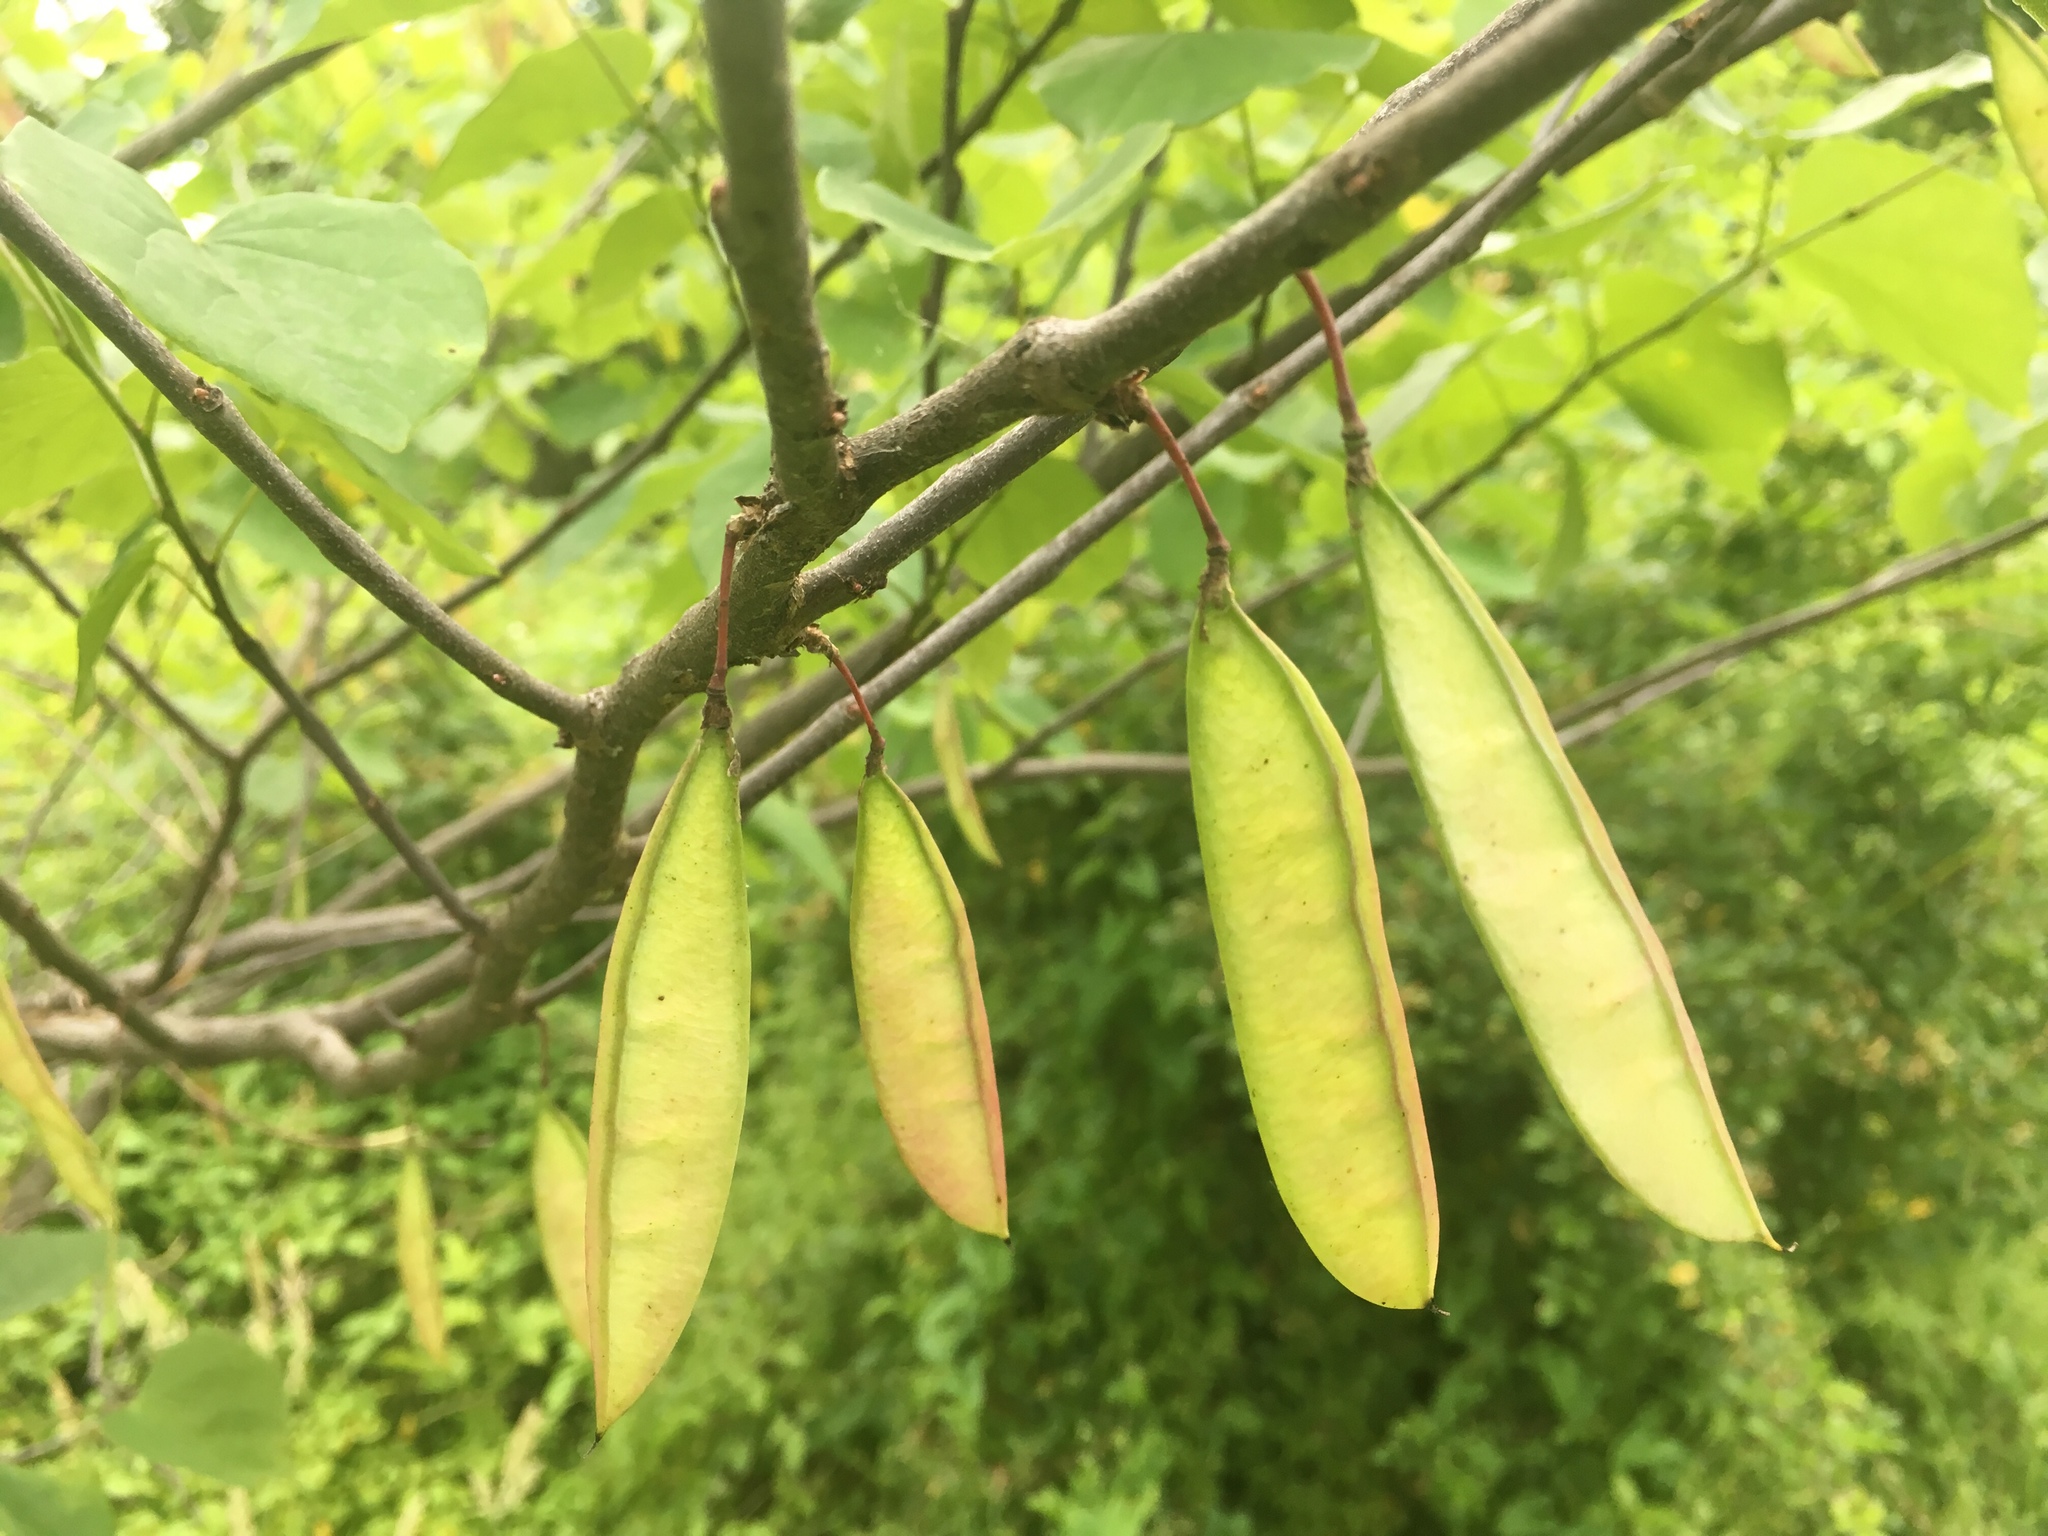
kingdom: Plantae
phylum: Tracheophyta
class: Magnoliopsida
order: Fabales
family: Fabaceae
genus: Cercis
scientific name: Cercis canadensis
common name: Eastern redbud
